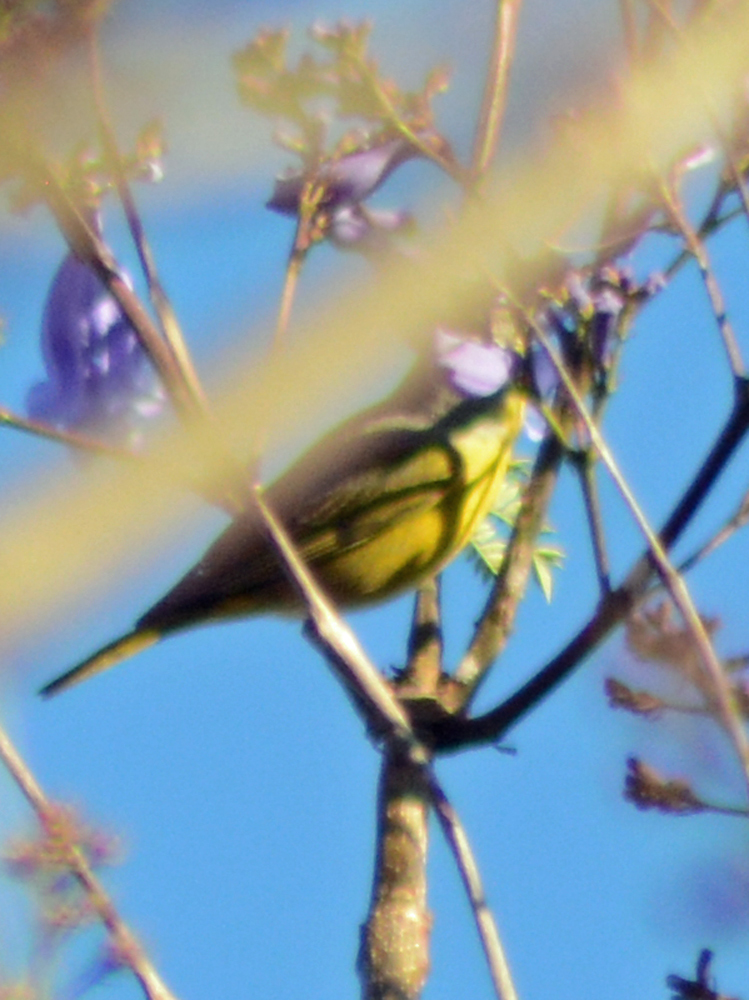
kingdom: Animalia
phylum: Chordata
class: Aves
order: Passeriformes
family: Parulidae
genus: Setophaga
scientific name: Setophaga petechia
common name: Yellow warbler
